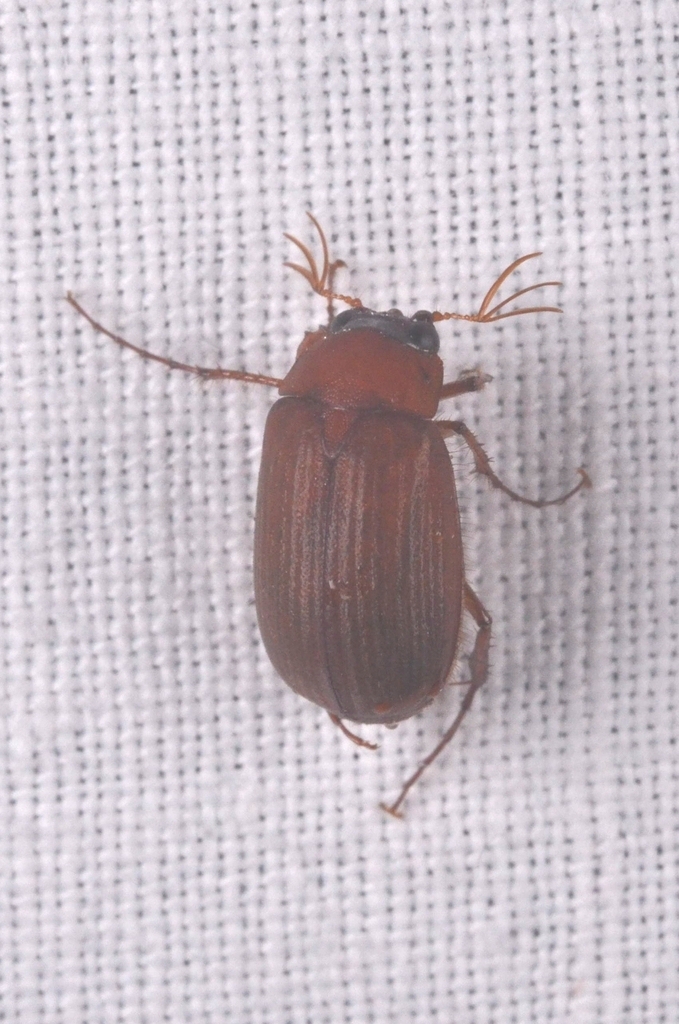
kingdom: Animalia
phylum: Arthropoda
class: Insecta
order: Coleoptera
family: Scarabaeidae
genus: Serica
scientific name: Serica brunnea
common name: Brown chafer
